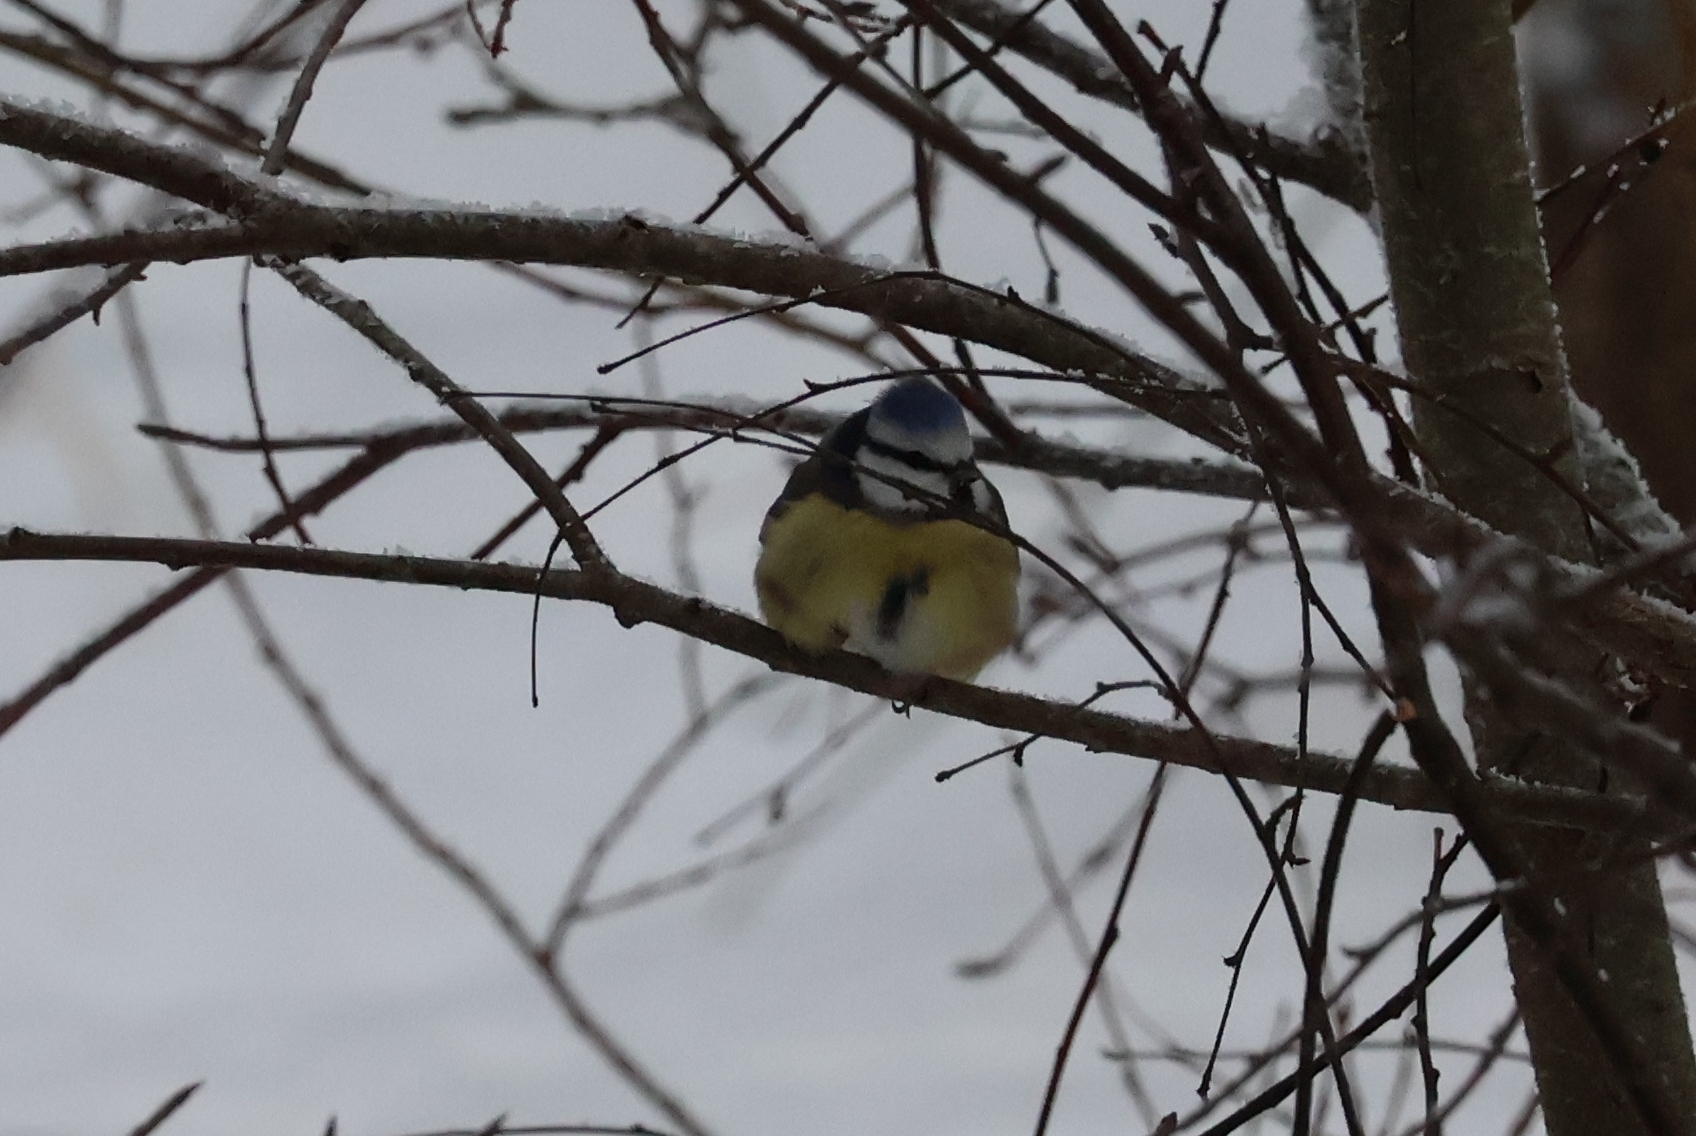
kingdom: Animalia
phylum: Chordata
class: Aves
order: Passeriformes
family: Paridae
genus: Cyanistes
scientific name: Cyanistes caeruleus
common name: Eurasian blue tit
